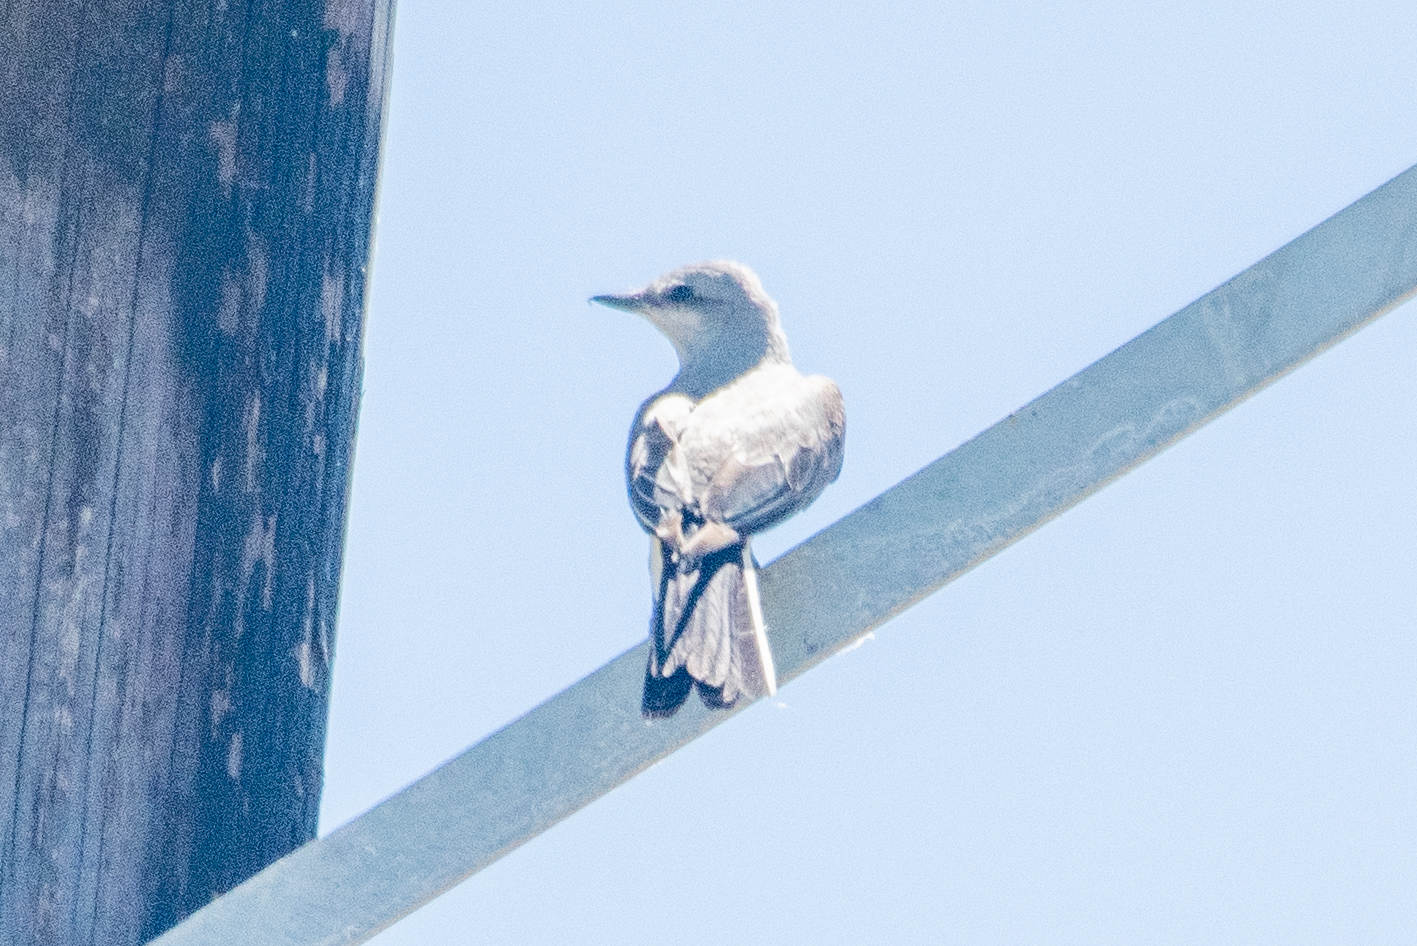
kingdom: Animalia
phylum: Chordata
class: Aves
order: Passeriformes
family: Tyrannidae
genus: Tyrannus
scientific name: Tyrannus verticalis
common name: Western kingbird
